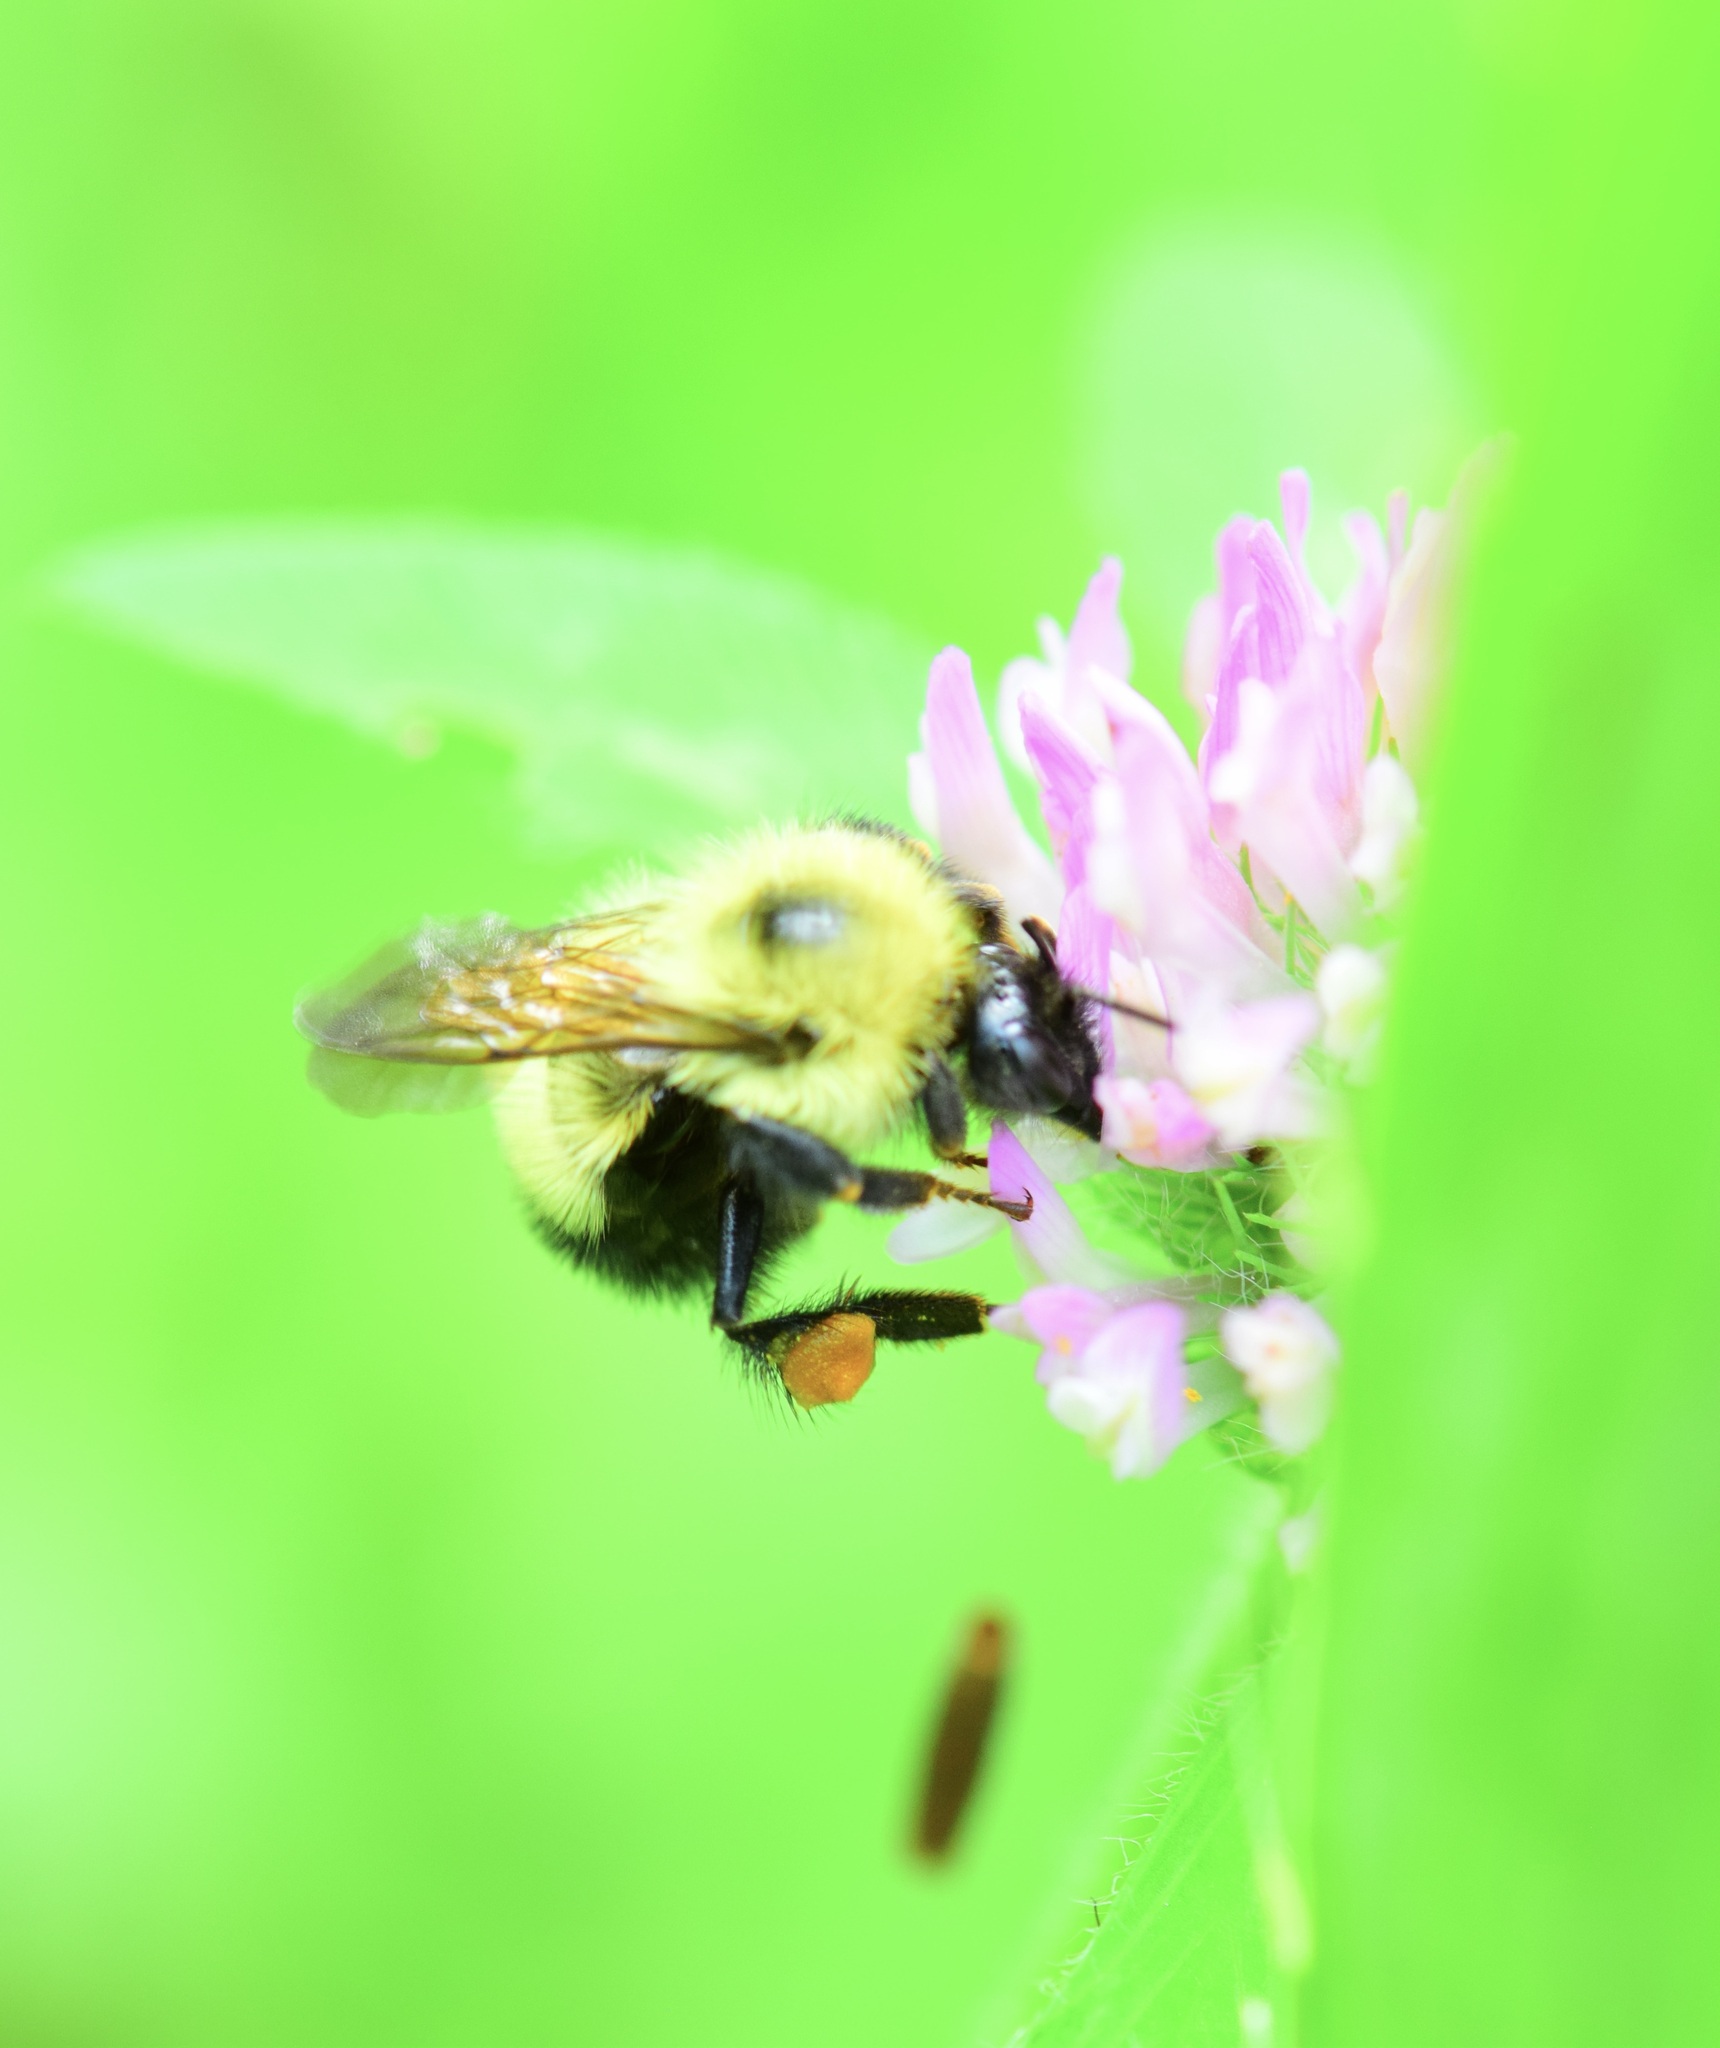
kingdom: Animalia
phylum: Arthropoda
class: Insecta
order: Hymenoptera
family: Apidae
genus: Bombus
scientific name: Bombus vagans
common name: Half-black bumble bee
